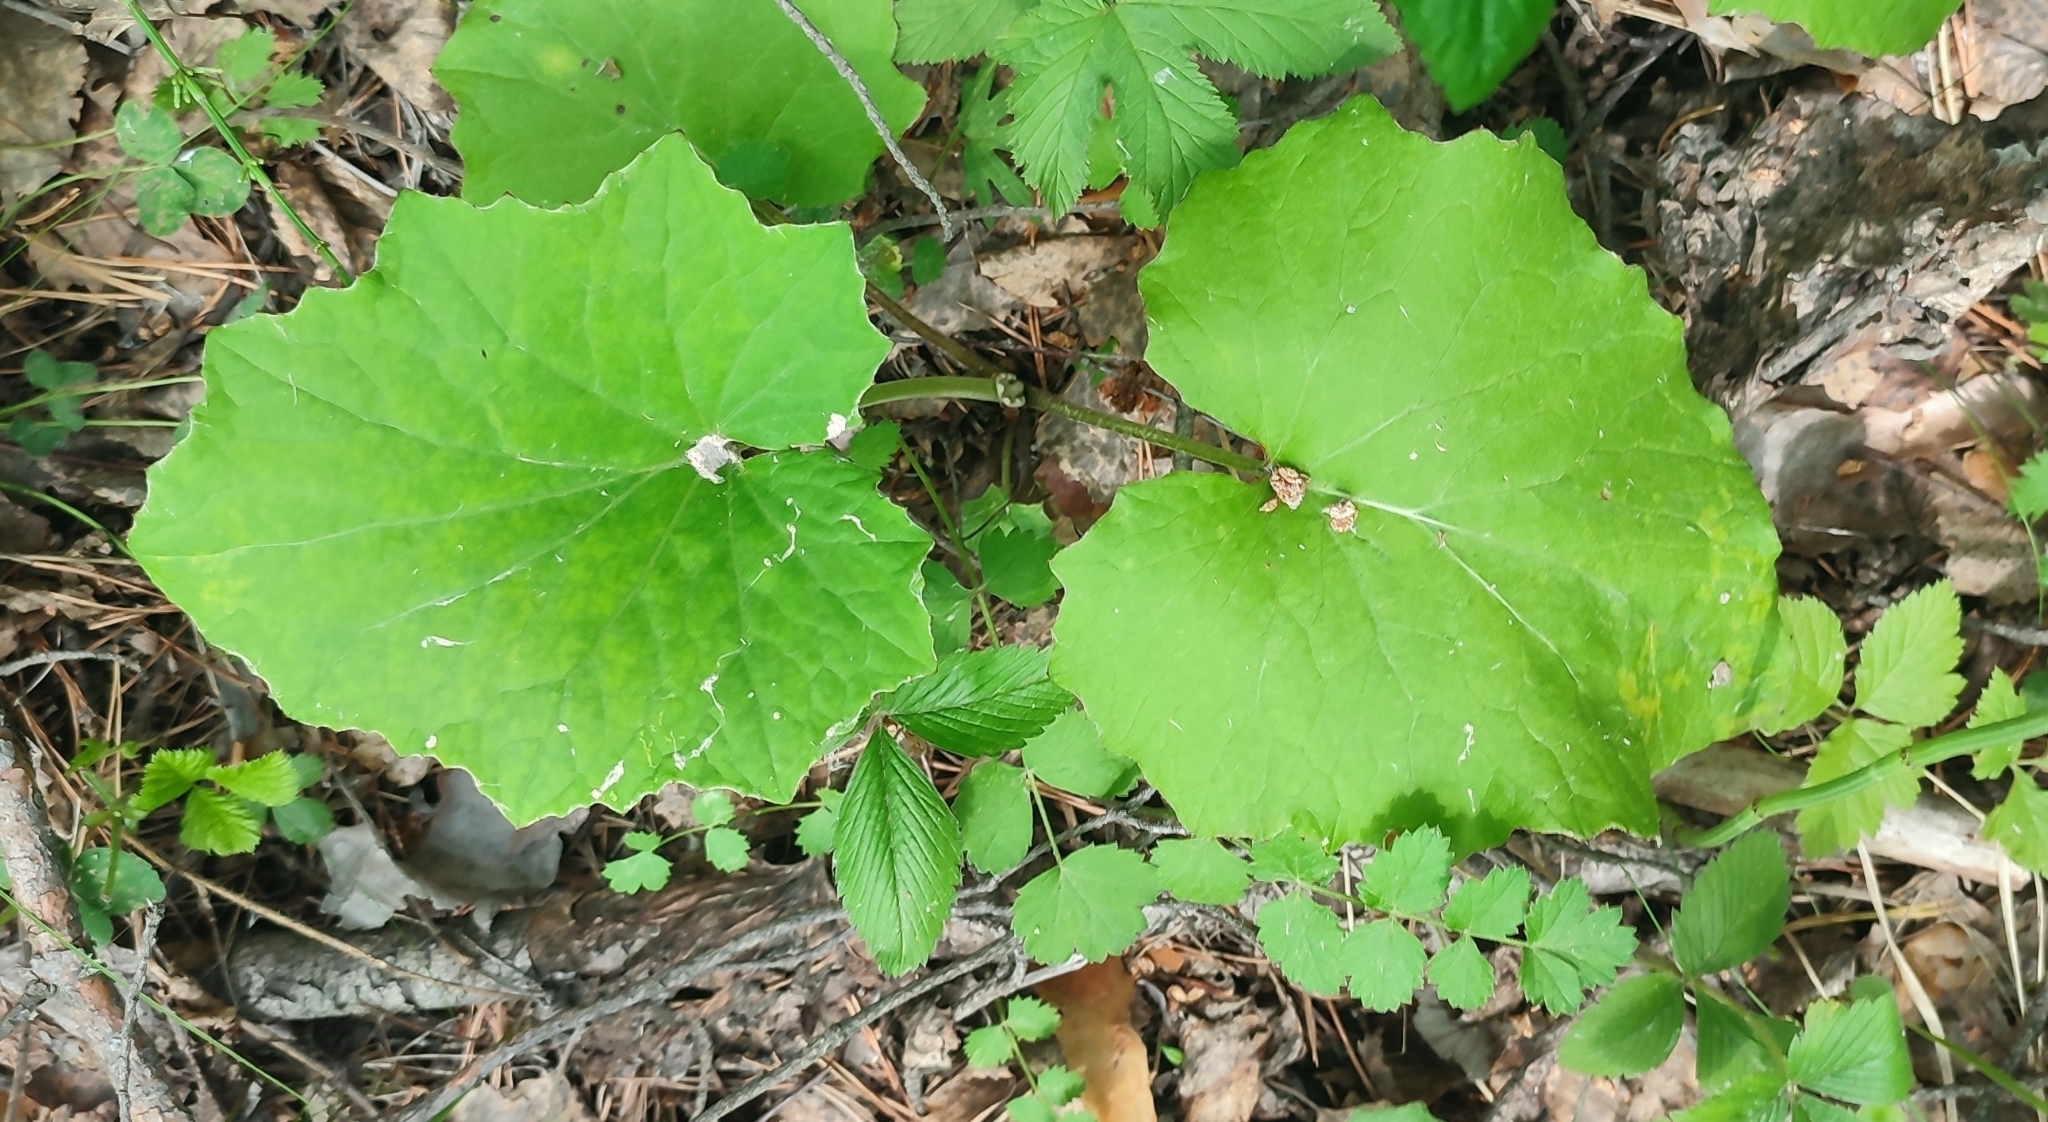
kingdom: Plantae
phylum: Tracheophyta
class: Magnoliopsida
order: Asterales
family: Asteraceae
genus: Tussilago
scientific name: Tussilago farfara
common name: Coltsfoot
